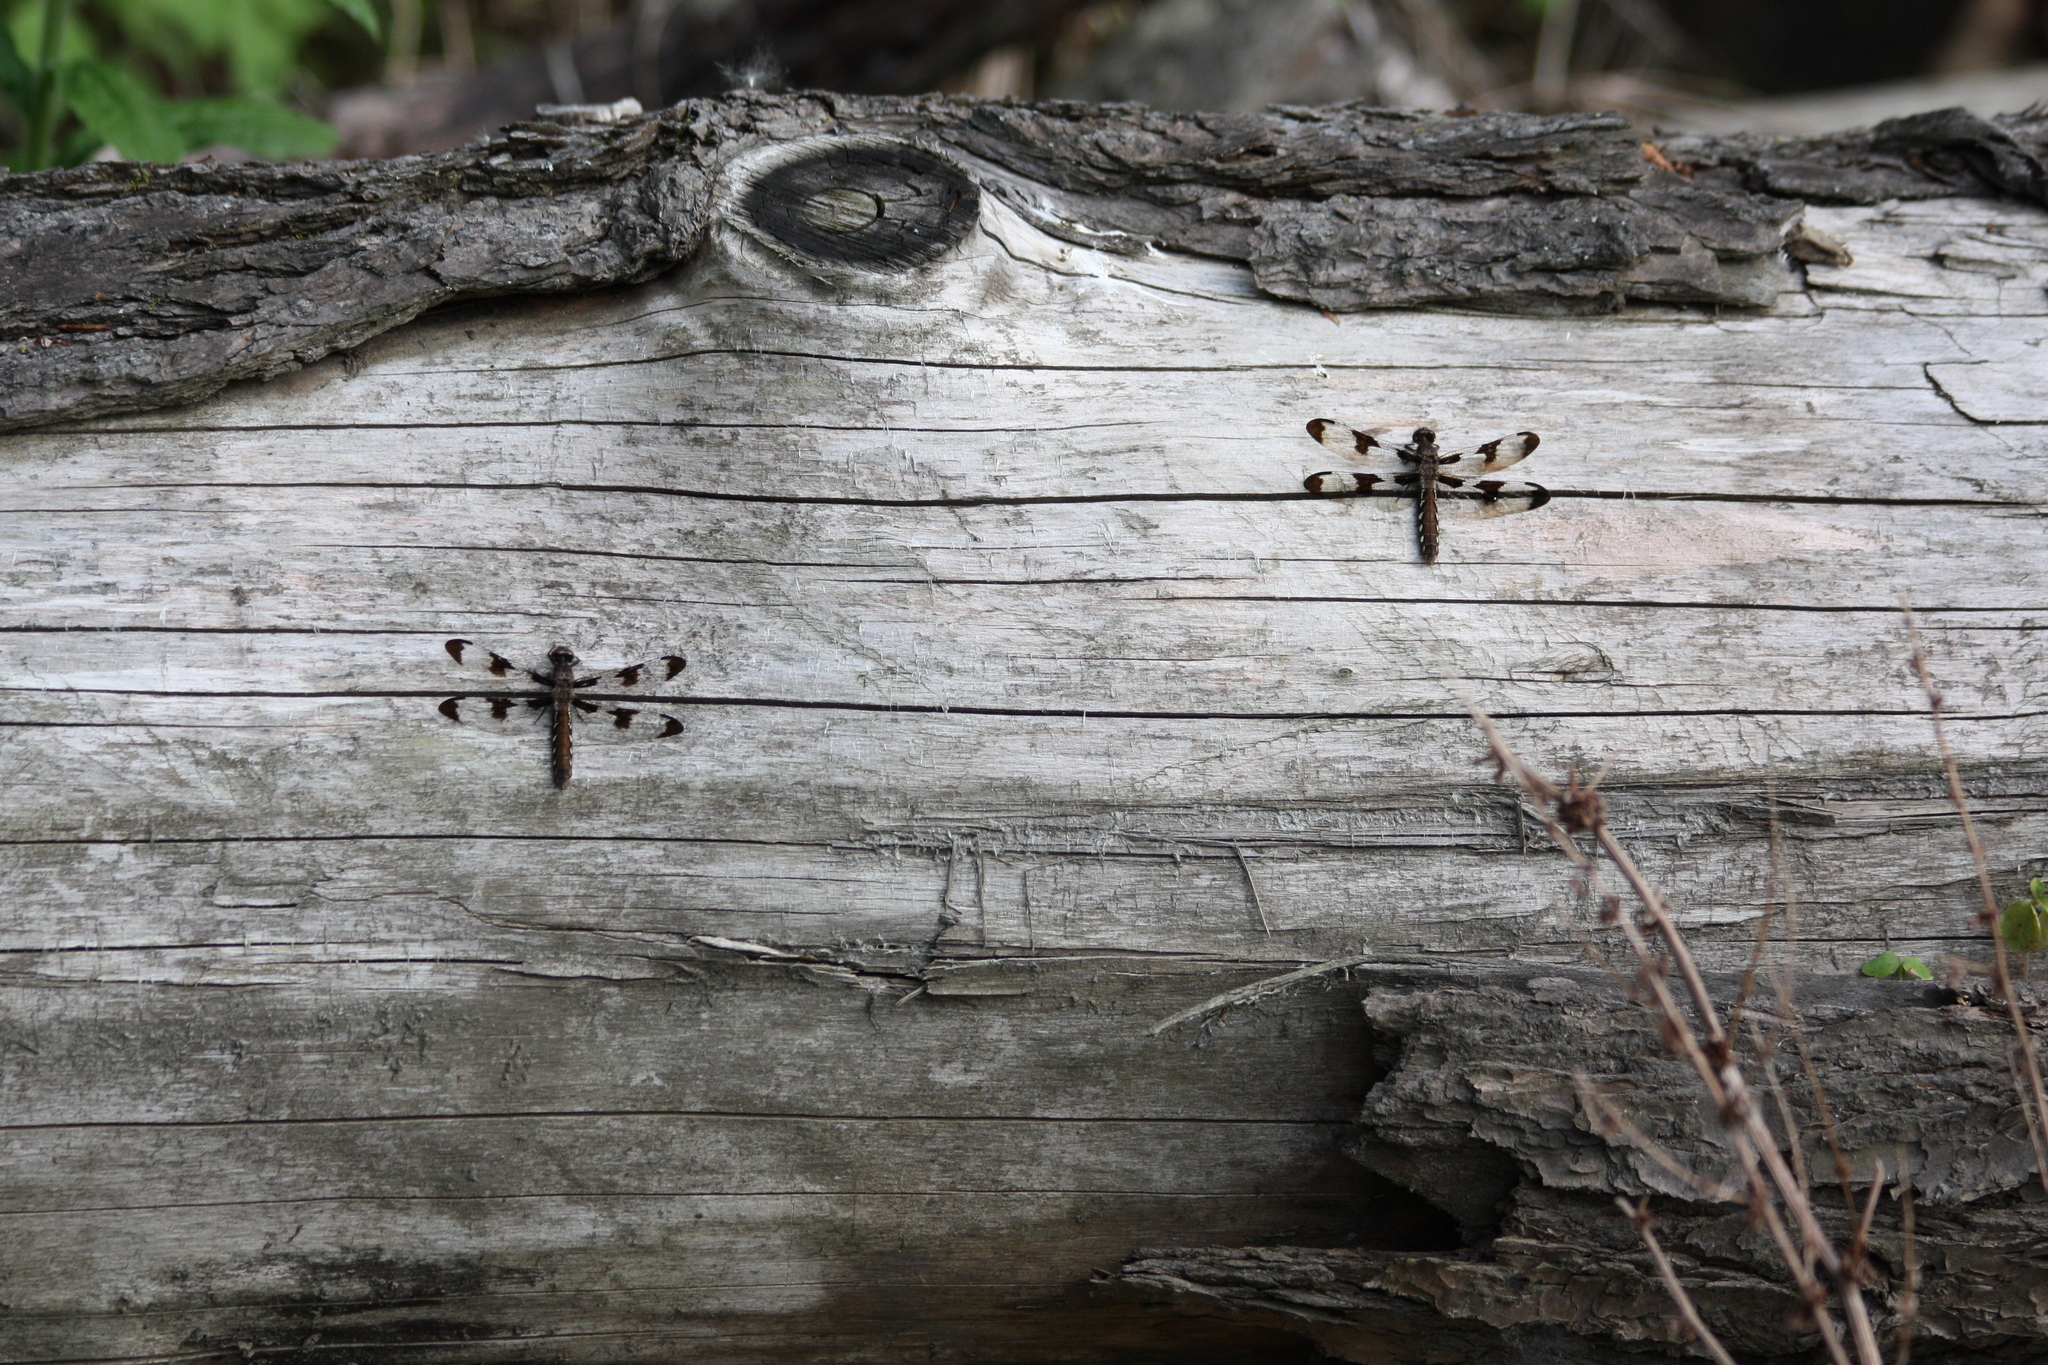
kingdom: Animalia
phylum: Arthropoda
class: Insecta
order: Odonata
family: Libellulidae
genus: Plathemis
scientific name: Plathemis lydia
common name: Common whitetail
